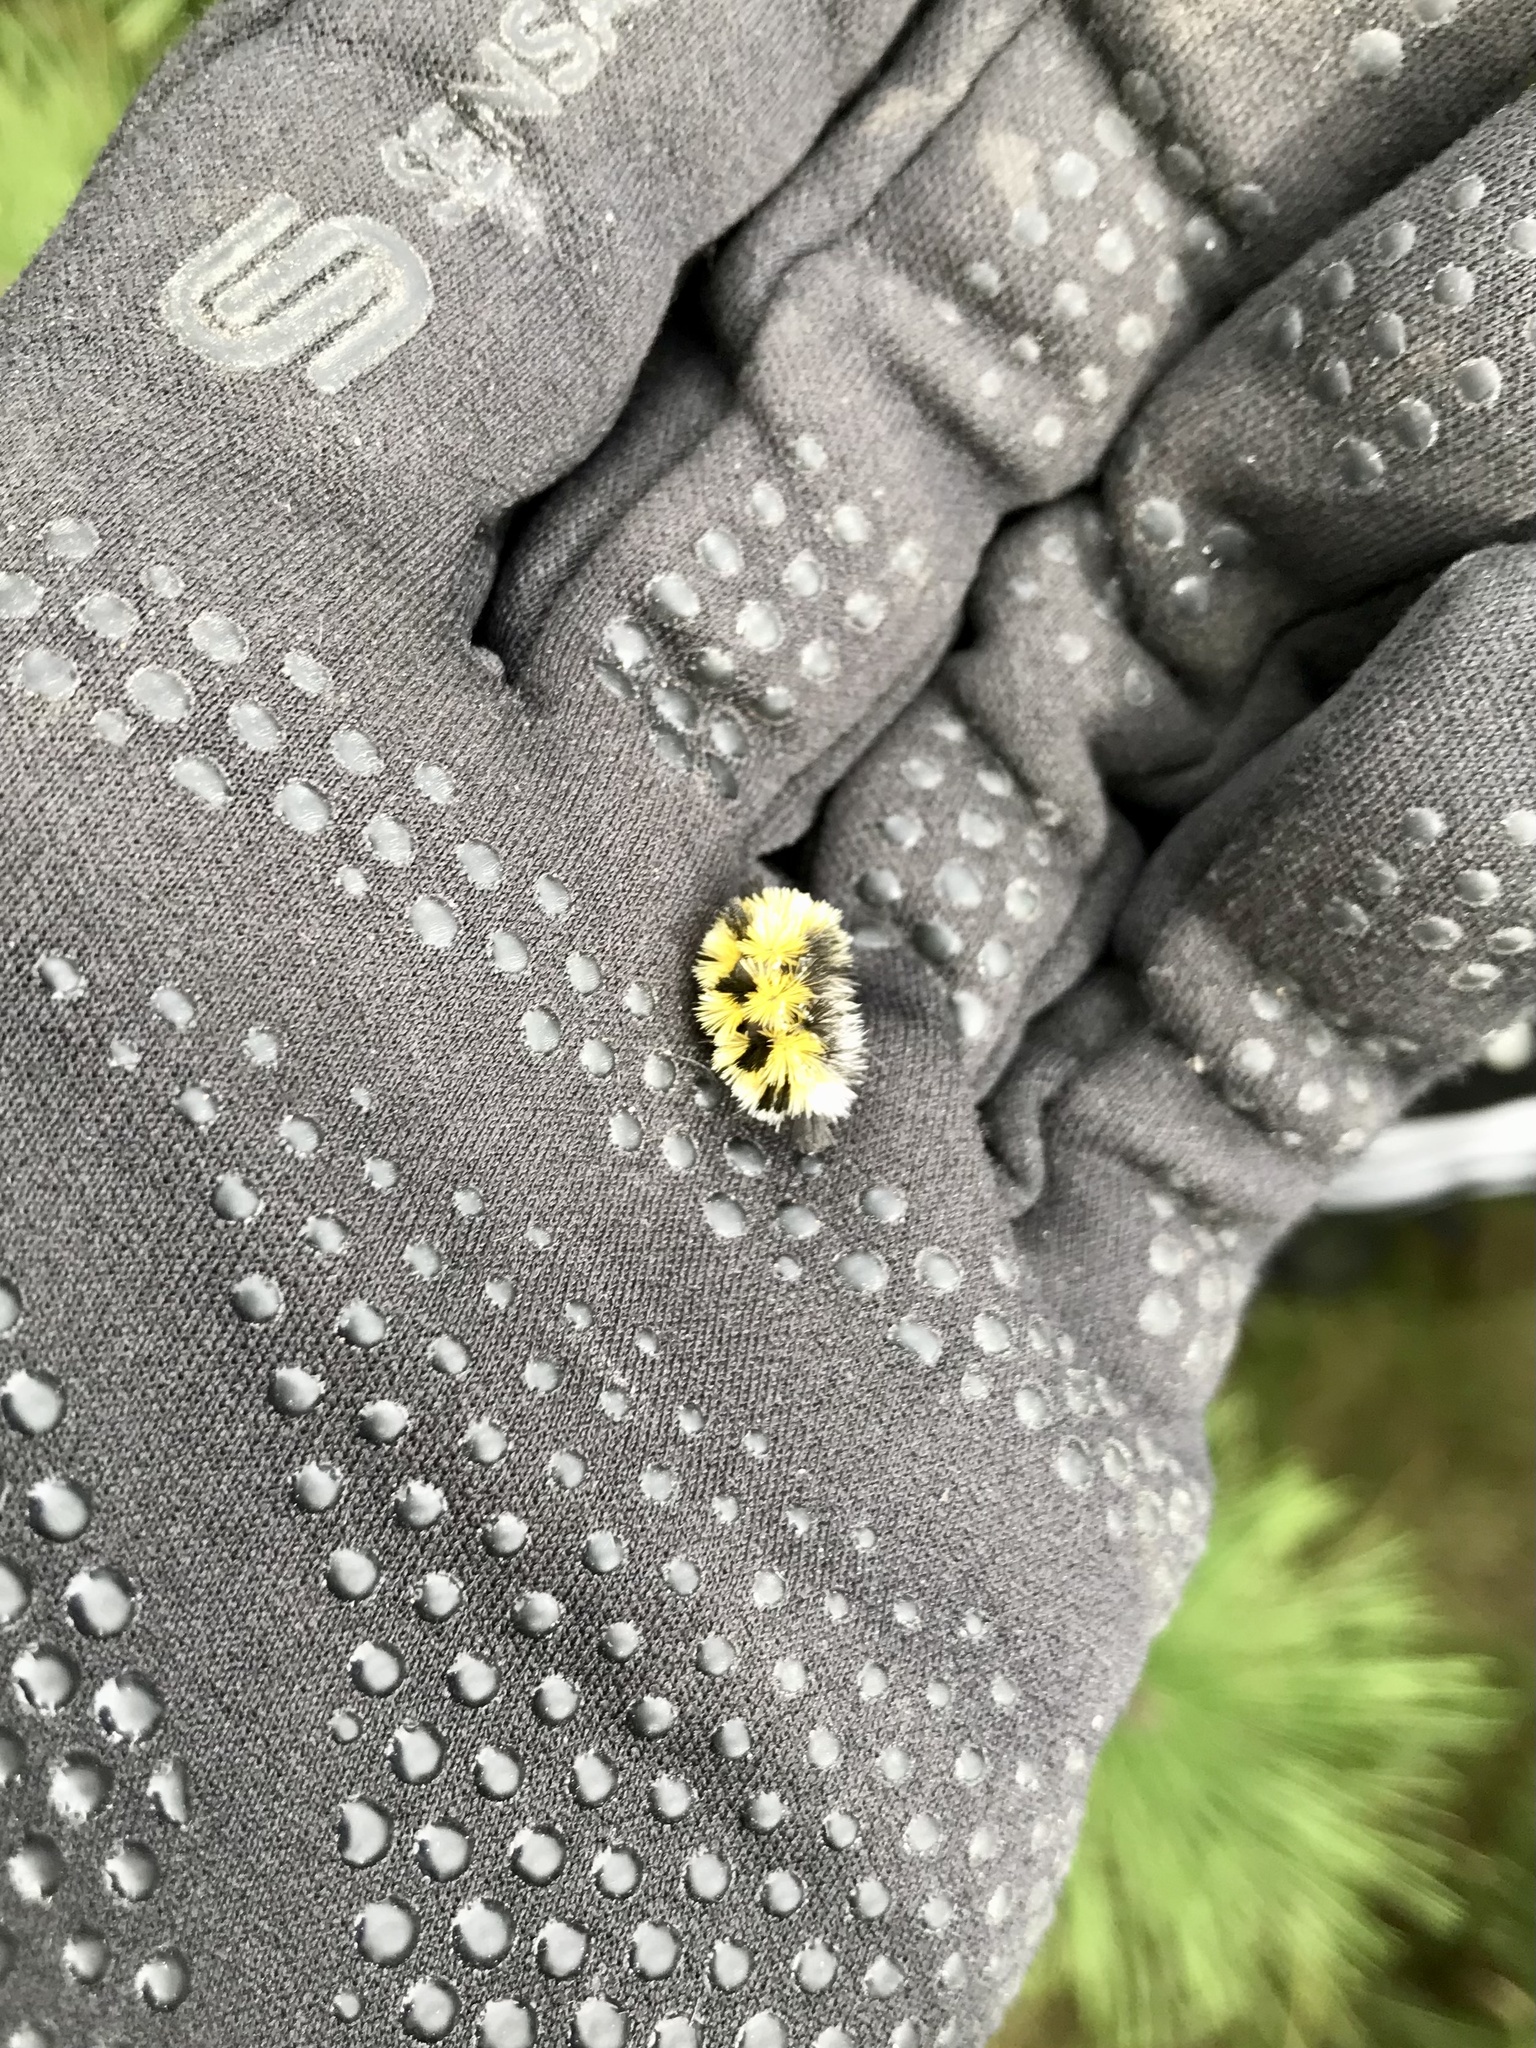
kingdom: Animalia
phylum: Arthropoda
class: Insecta
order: Lepidoptera
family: Erebidae
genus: Ctenucha
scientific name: Ctenucha virginica
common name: Virginia ctenucha moth
